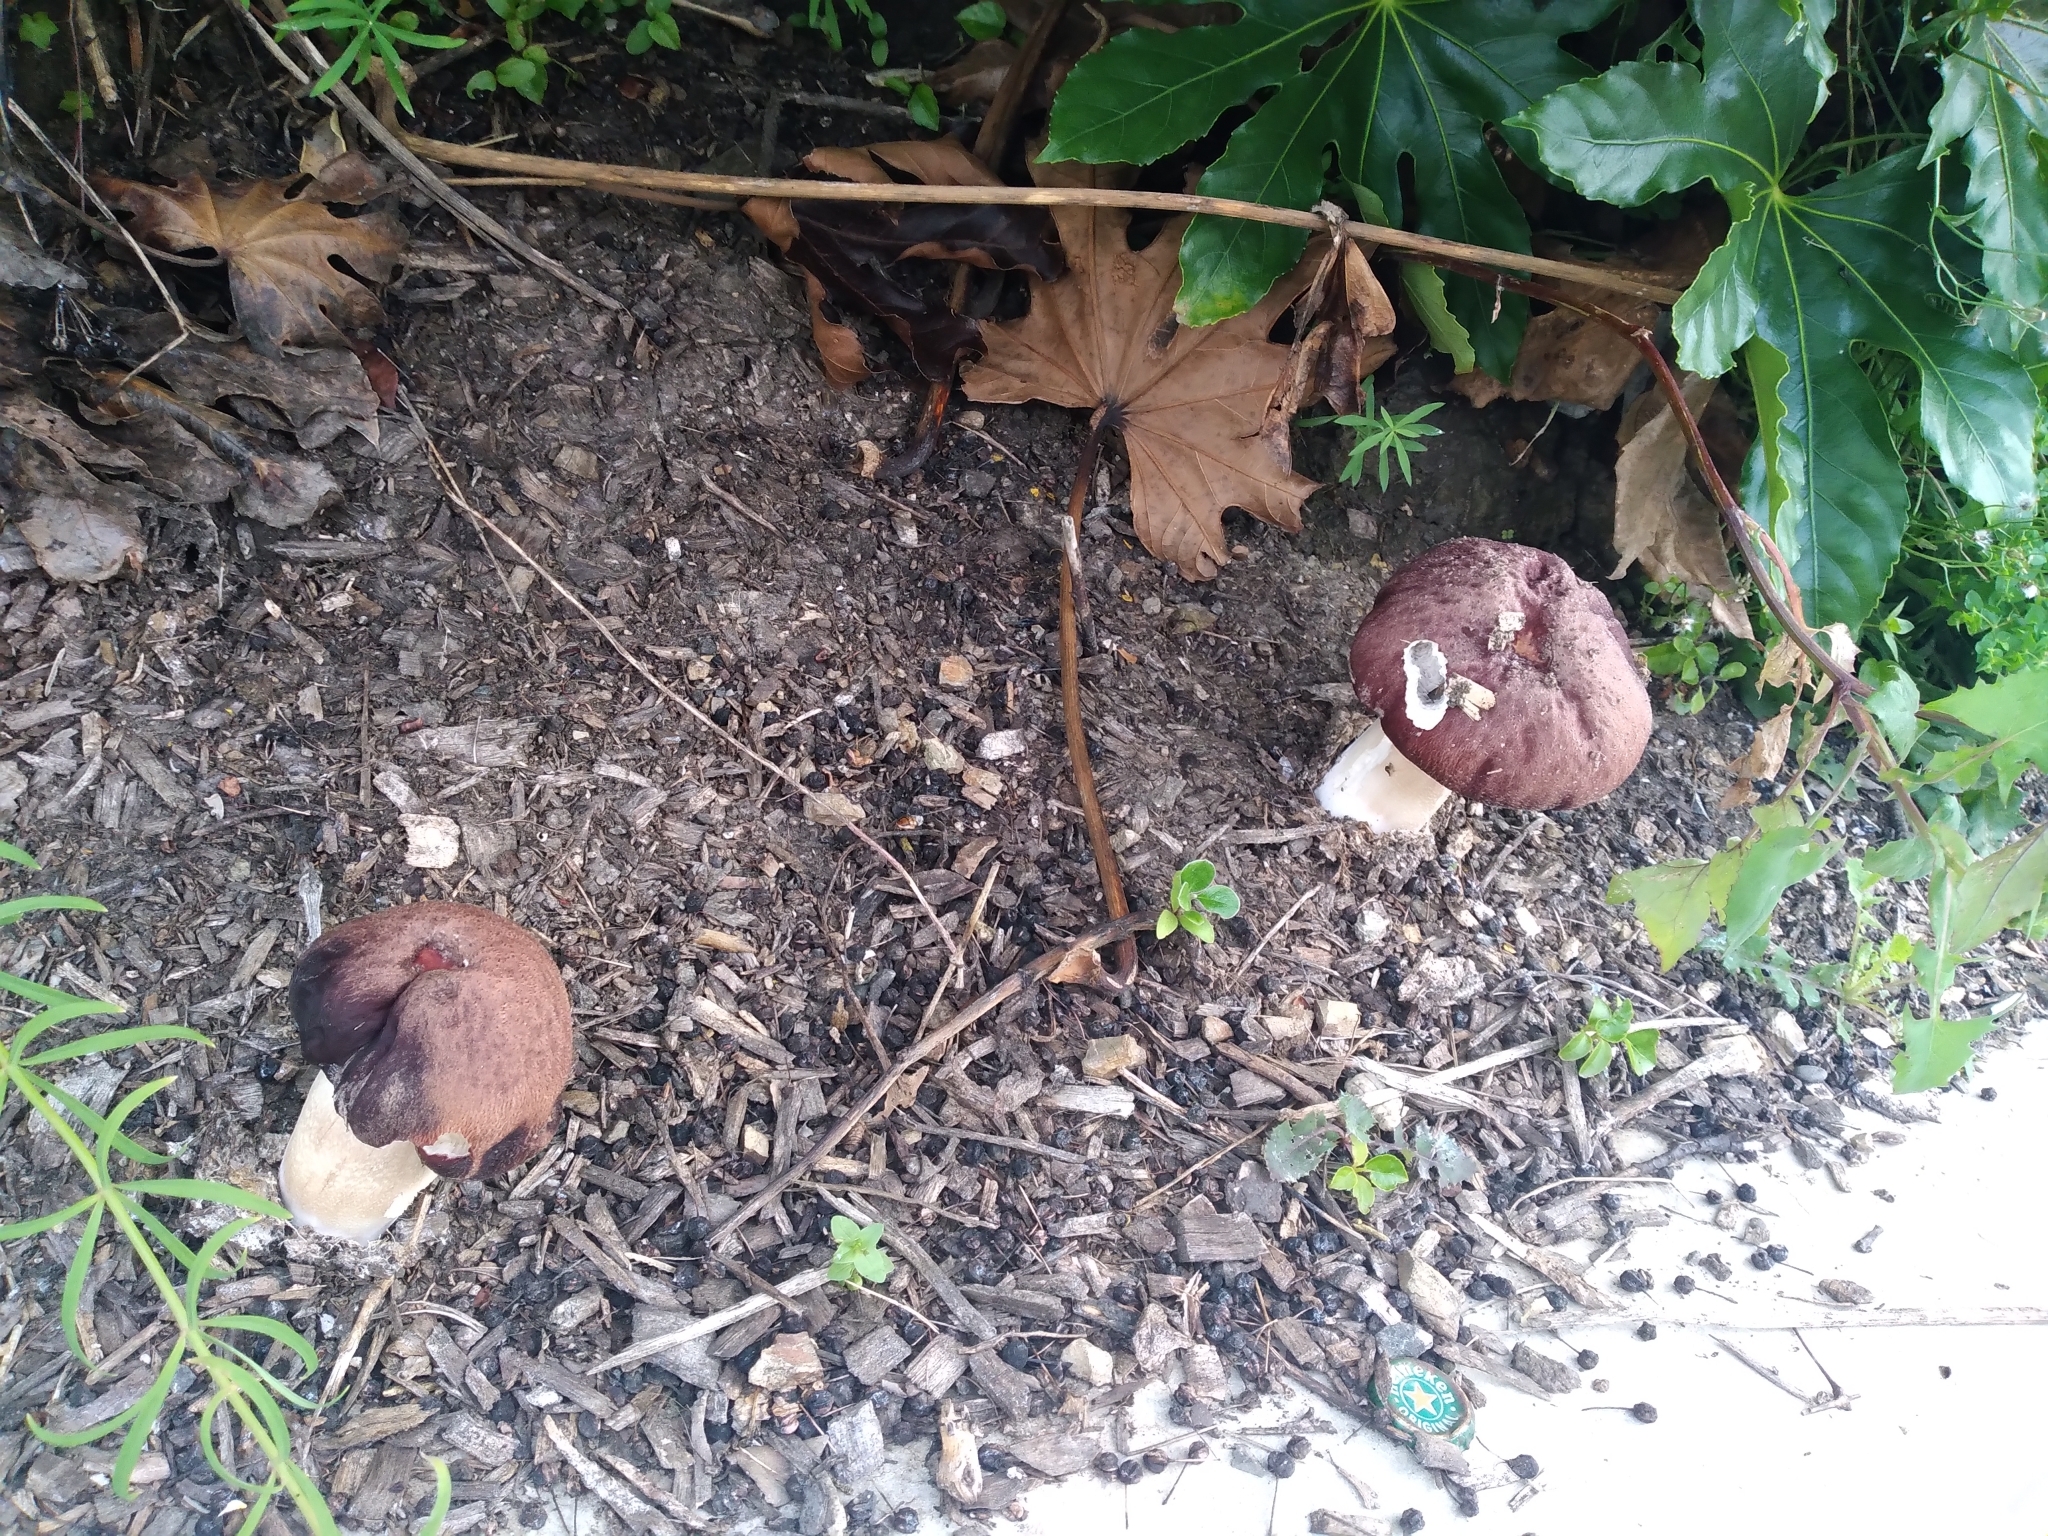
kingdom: Fungi
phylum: Basidiomycota
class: Agaricomycetes
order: Agaricales
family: Strophariaceae
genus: Stropharia
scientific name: Stropharia rugosoannulata
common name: Wine roundhead
